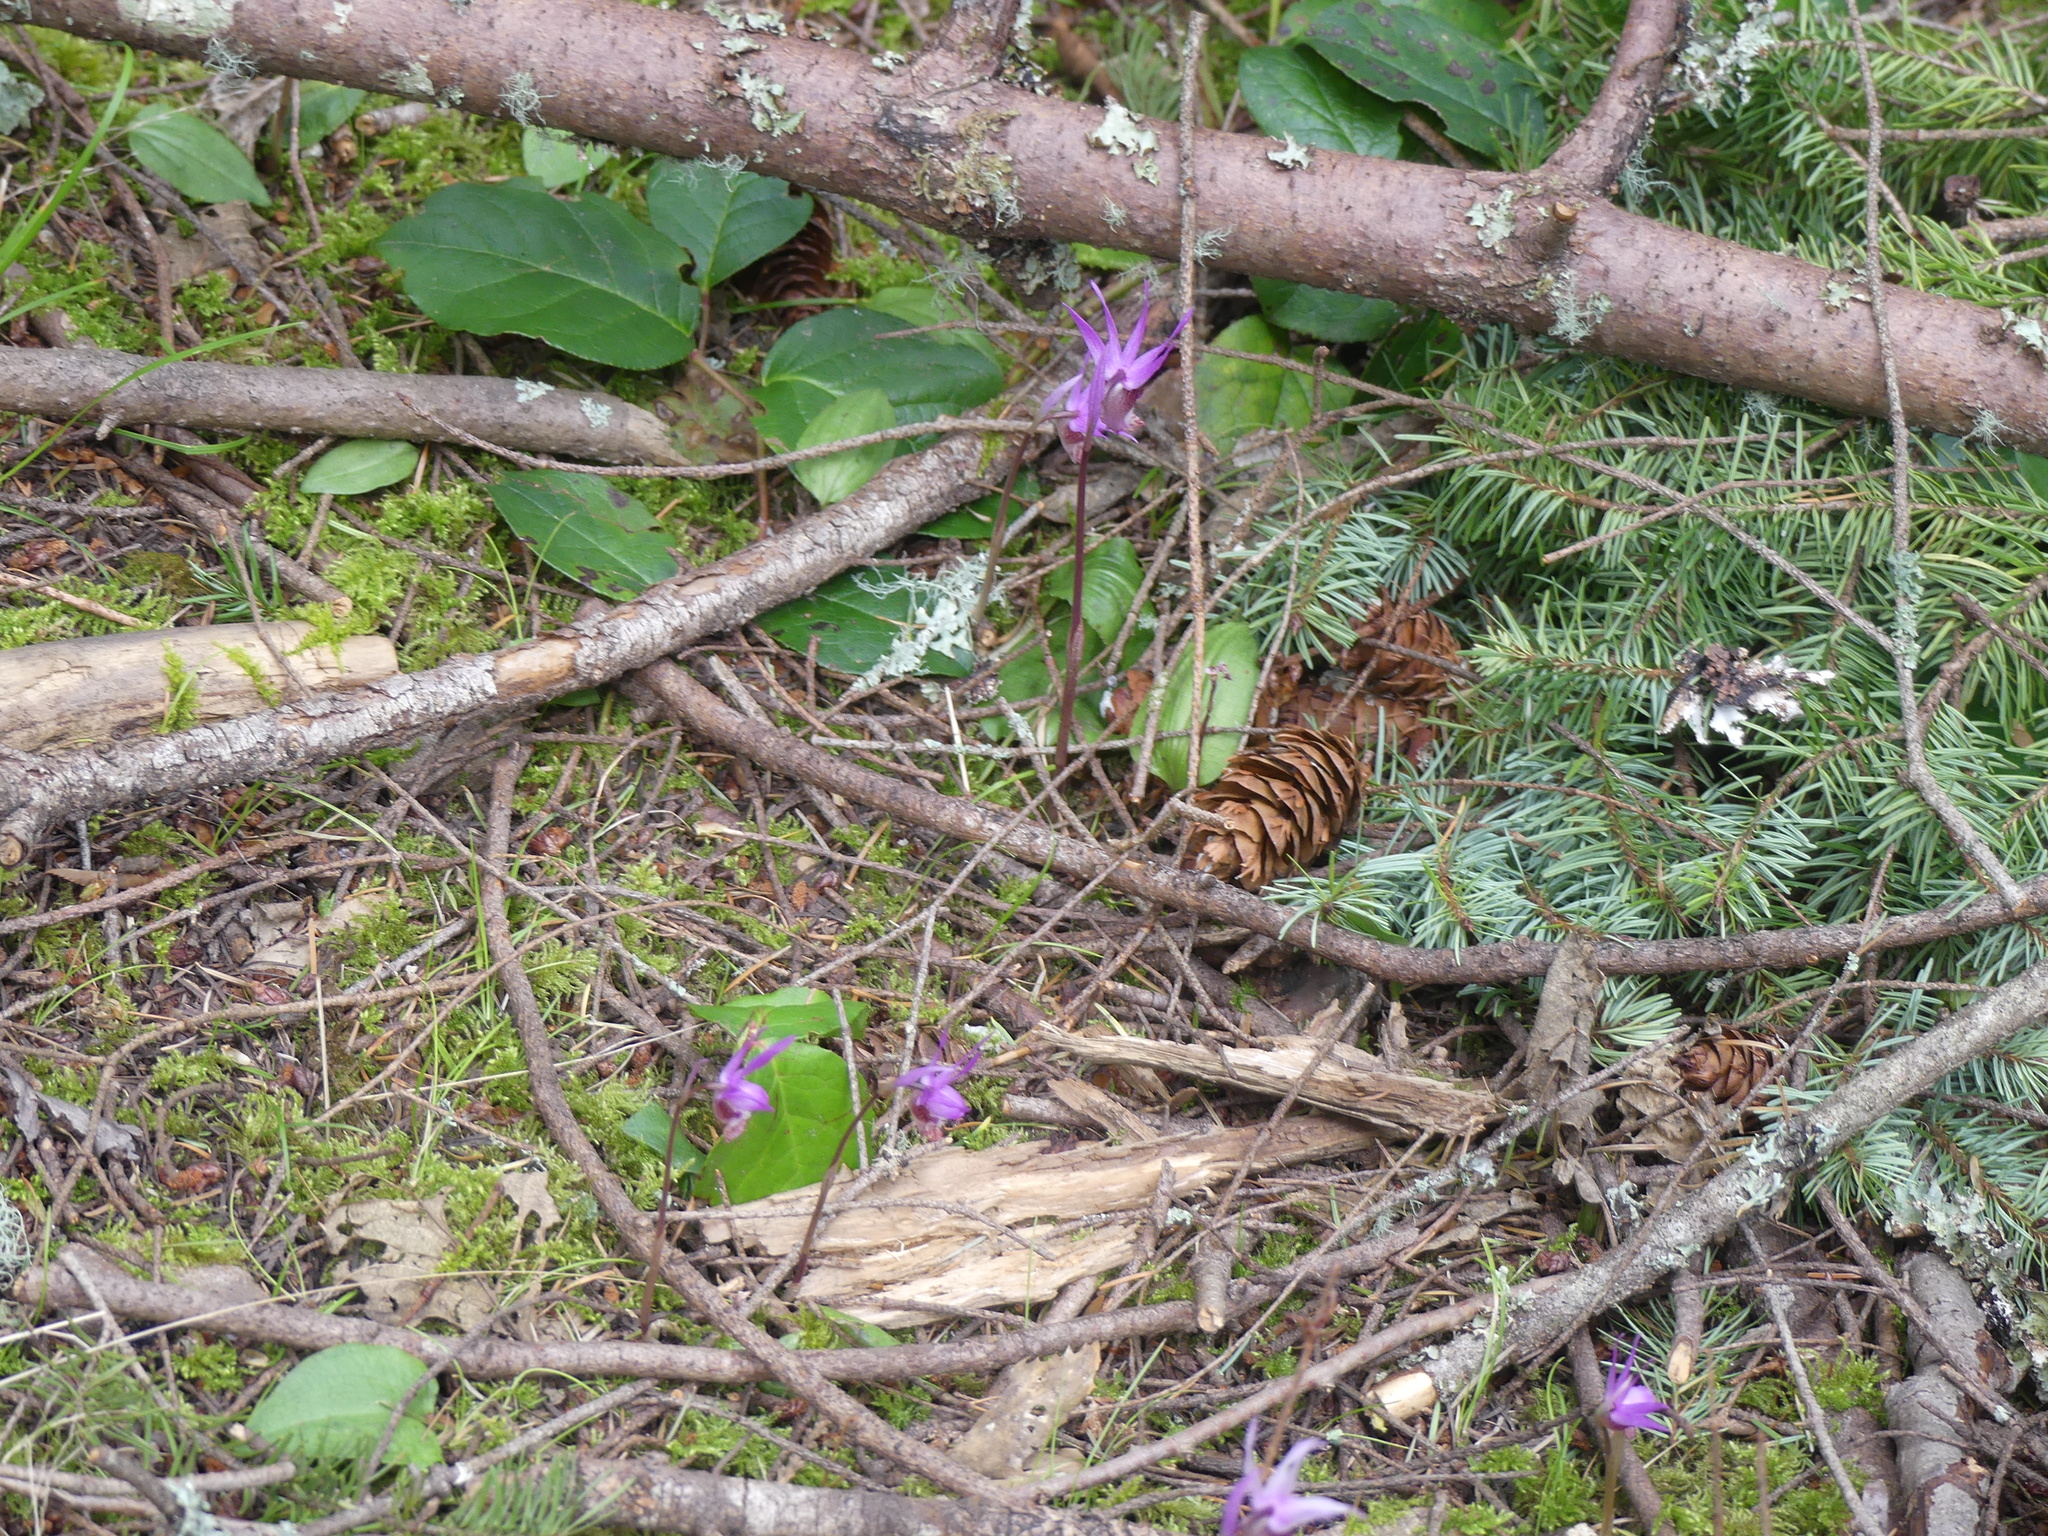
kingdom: Plantae
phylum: Tracheophyta
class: Liliopsida
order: Asparagales
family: Orchidaceae
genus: Calypso
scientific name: Calypso bulbosa
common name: Calypso
